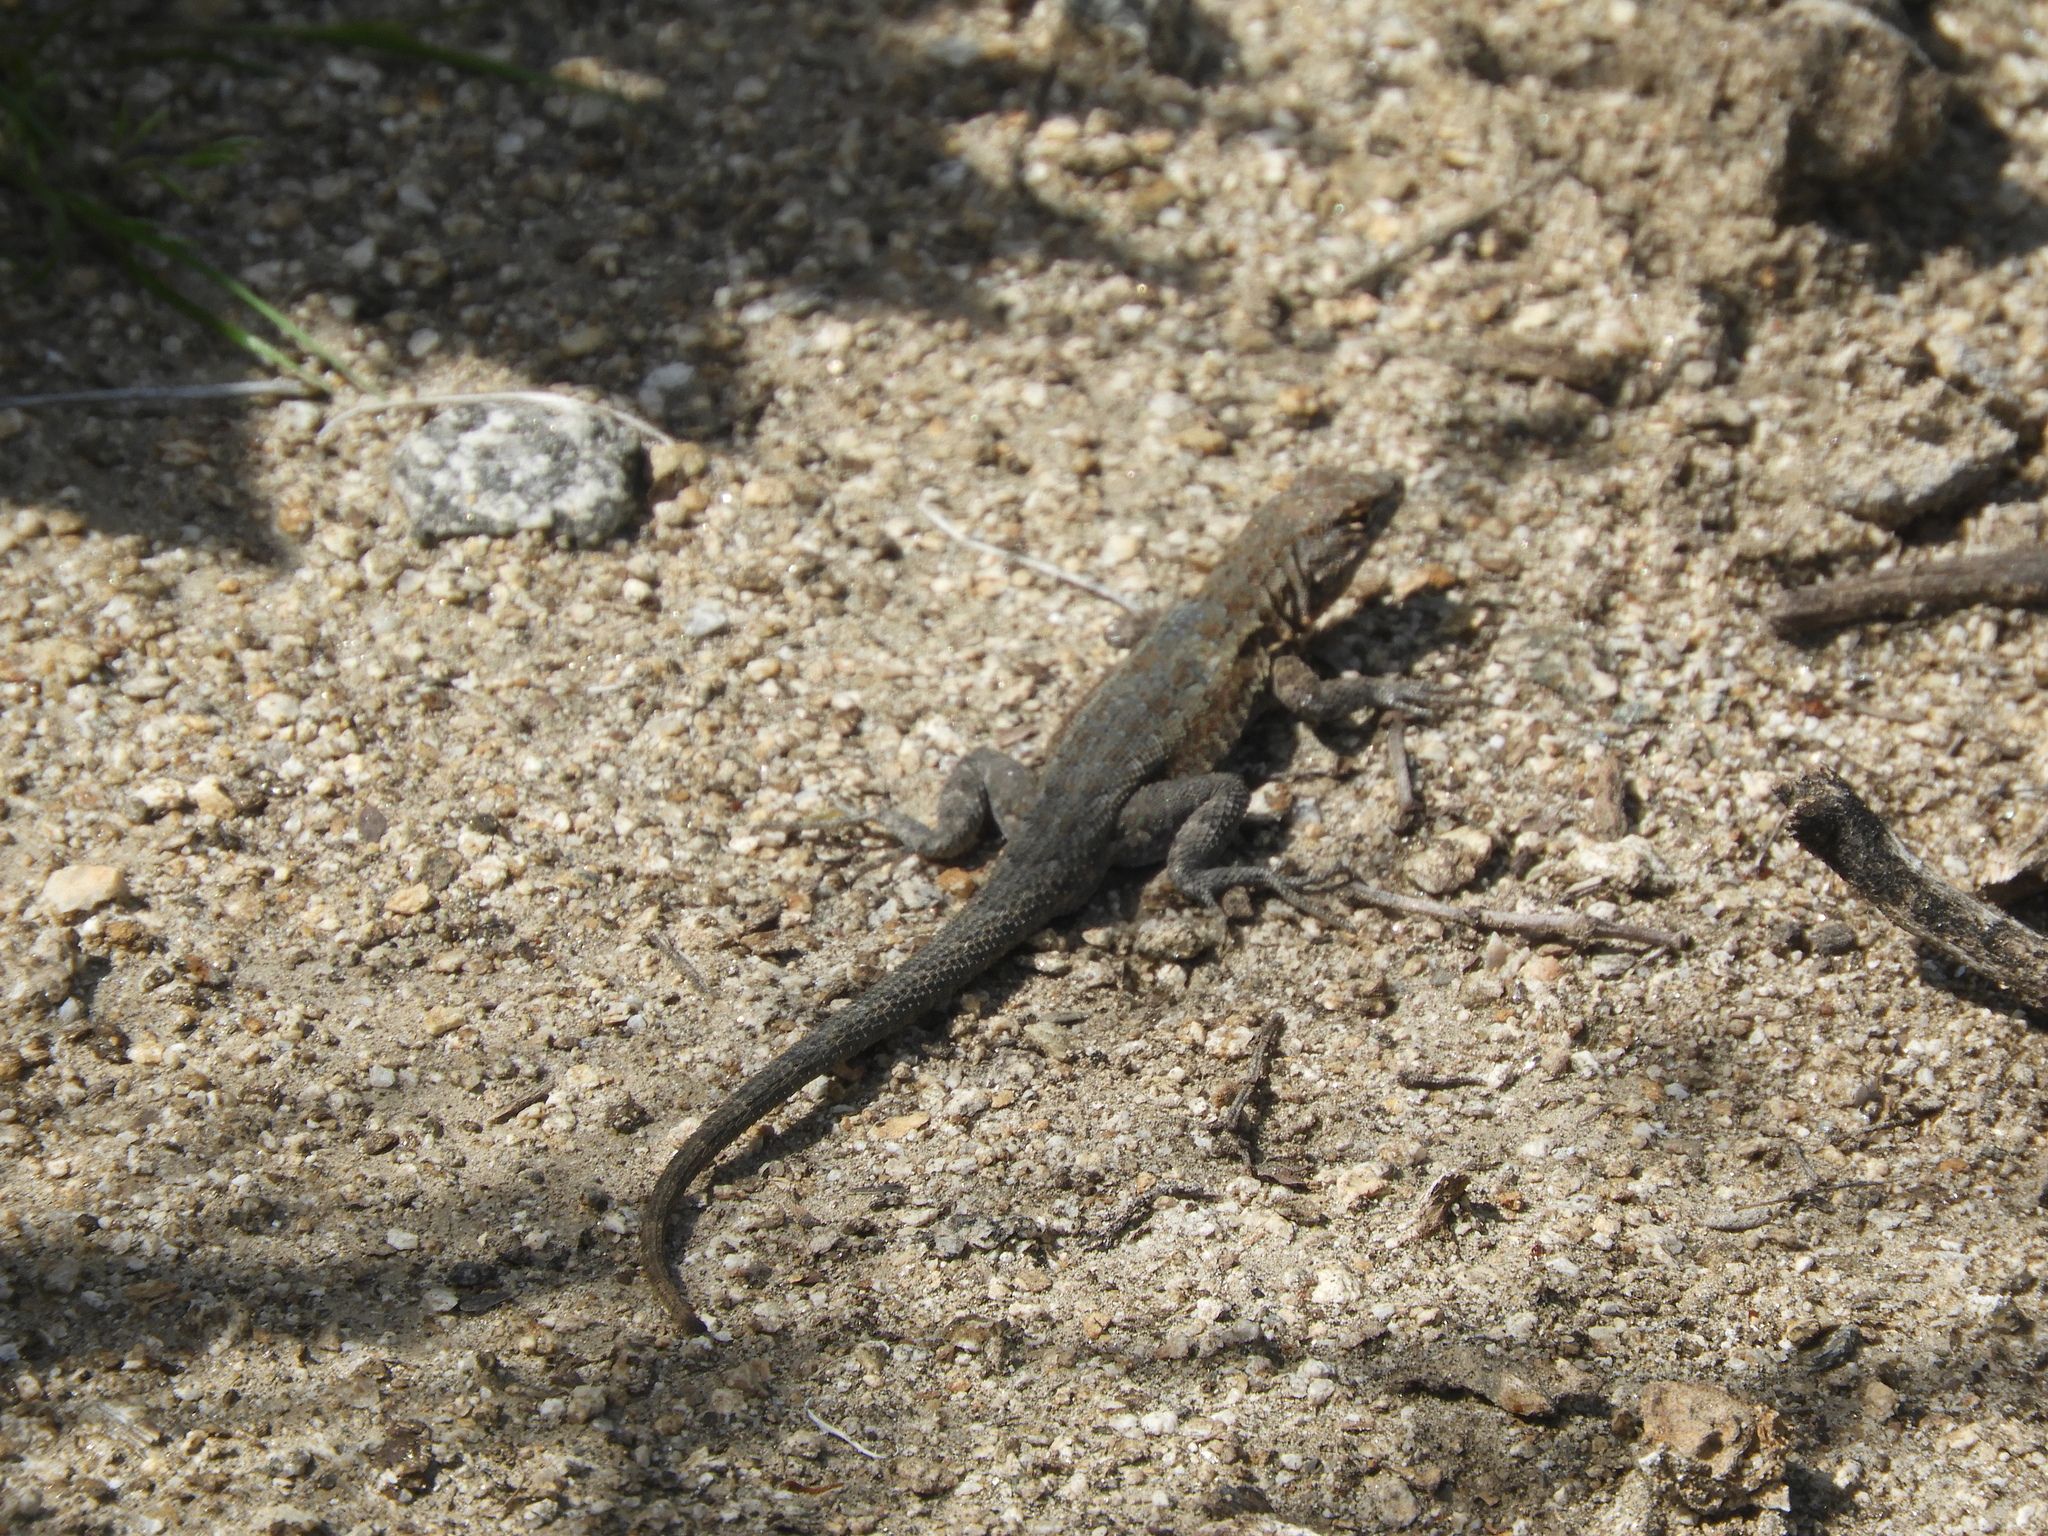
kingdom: Animalia
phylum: Chordata
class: Squamata
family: Phrynosomatidae
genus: Uta
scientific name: Uta stansburiana
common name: Side-blotched lizard
